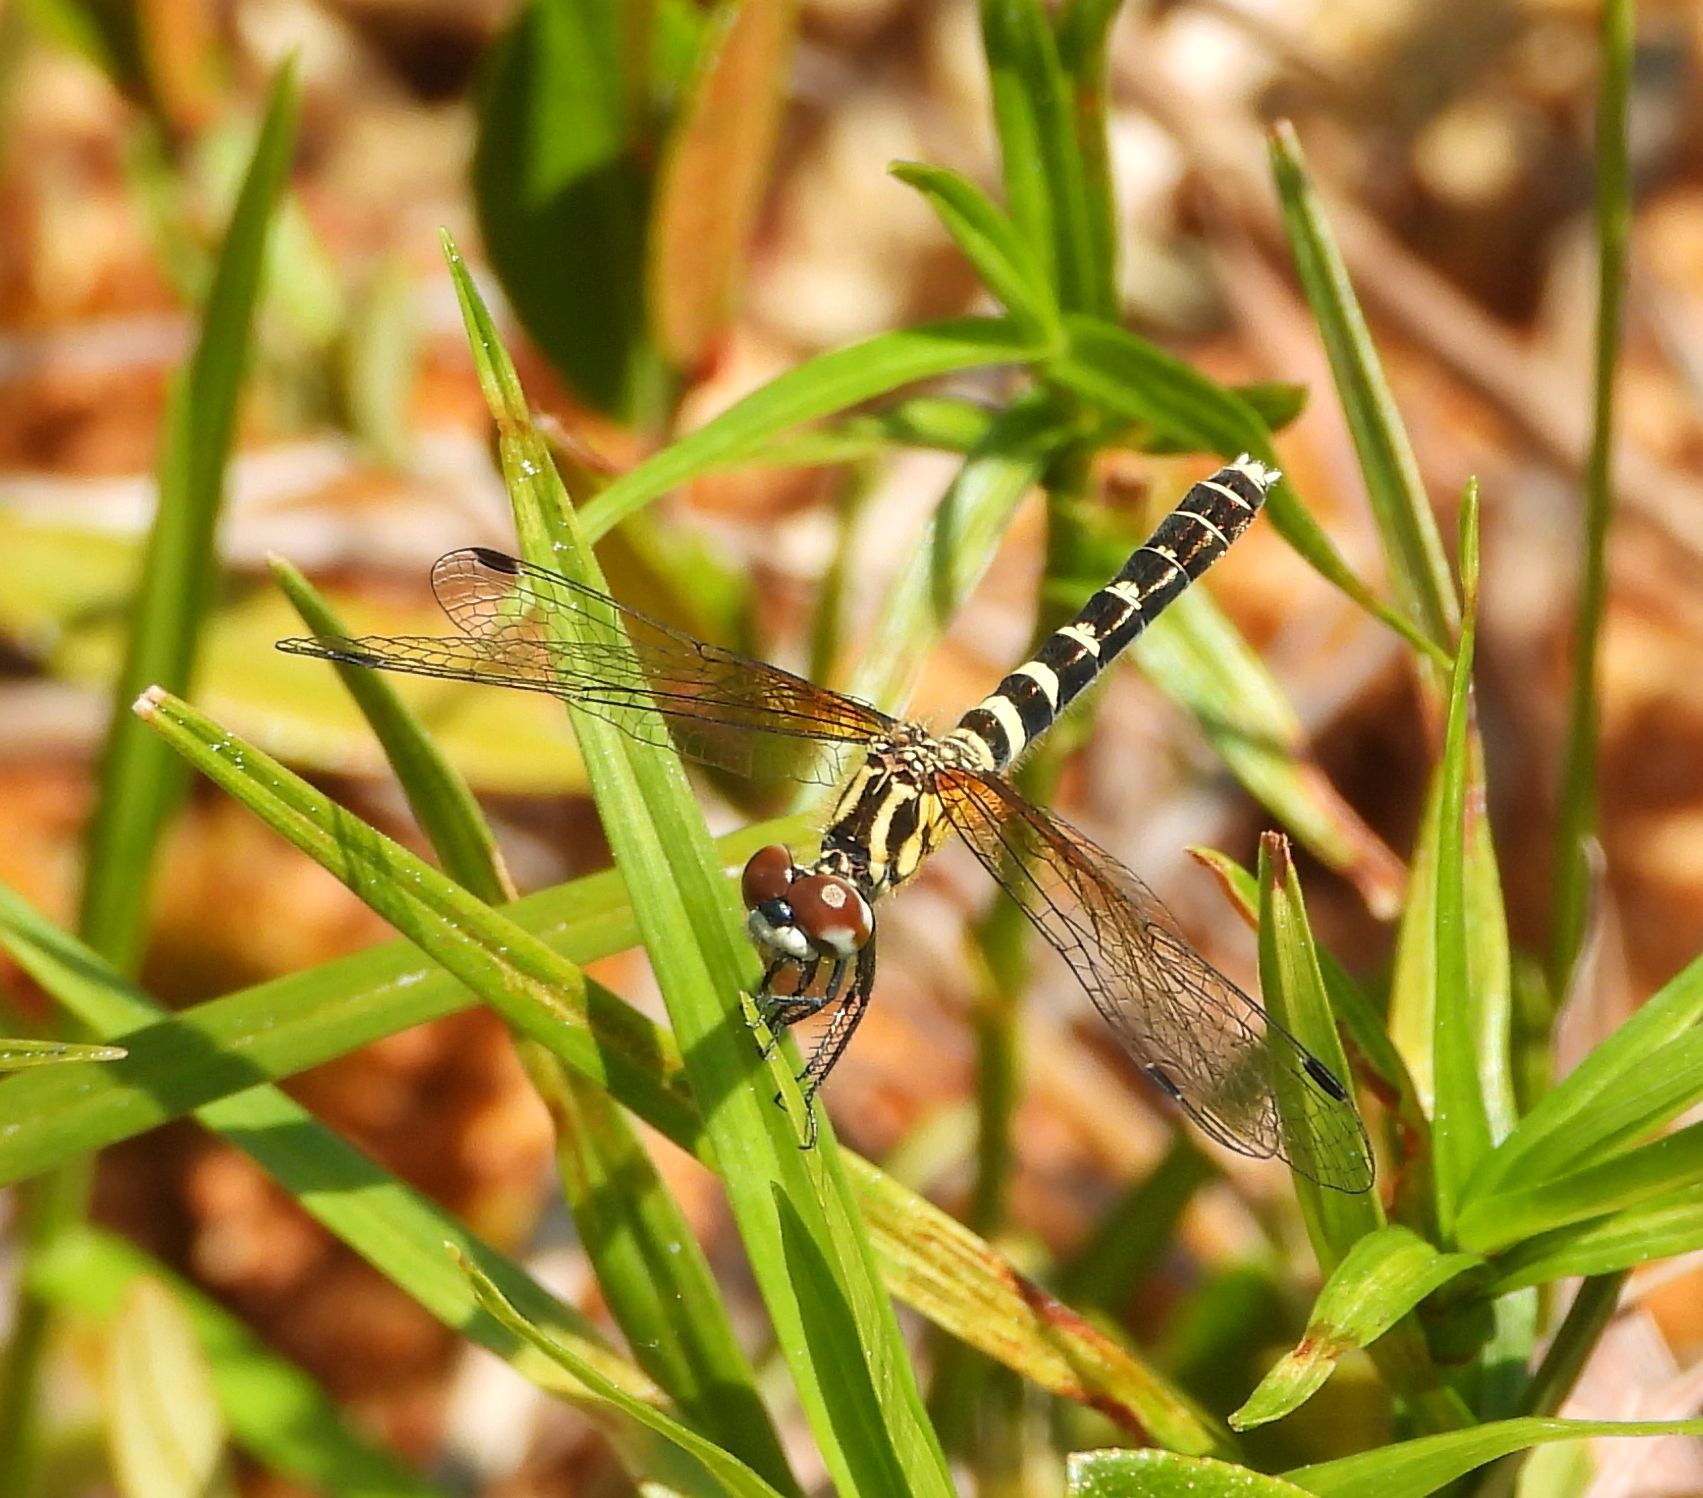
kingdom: Animalia
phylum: Arthropoda
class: Insecta
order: Odonata
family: Libellulidae
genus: Nannothemis
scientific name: Nannothemis bella
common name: Elfin skimmer
